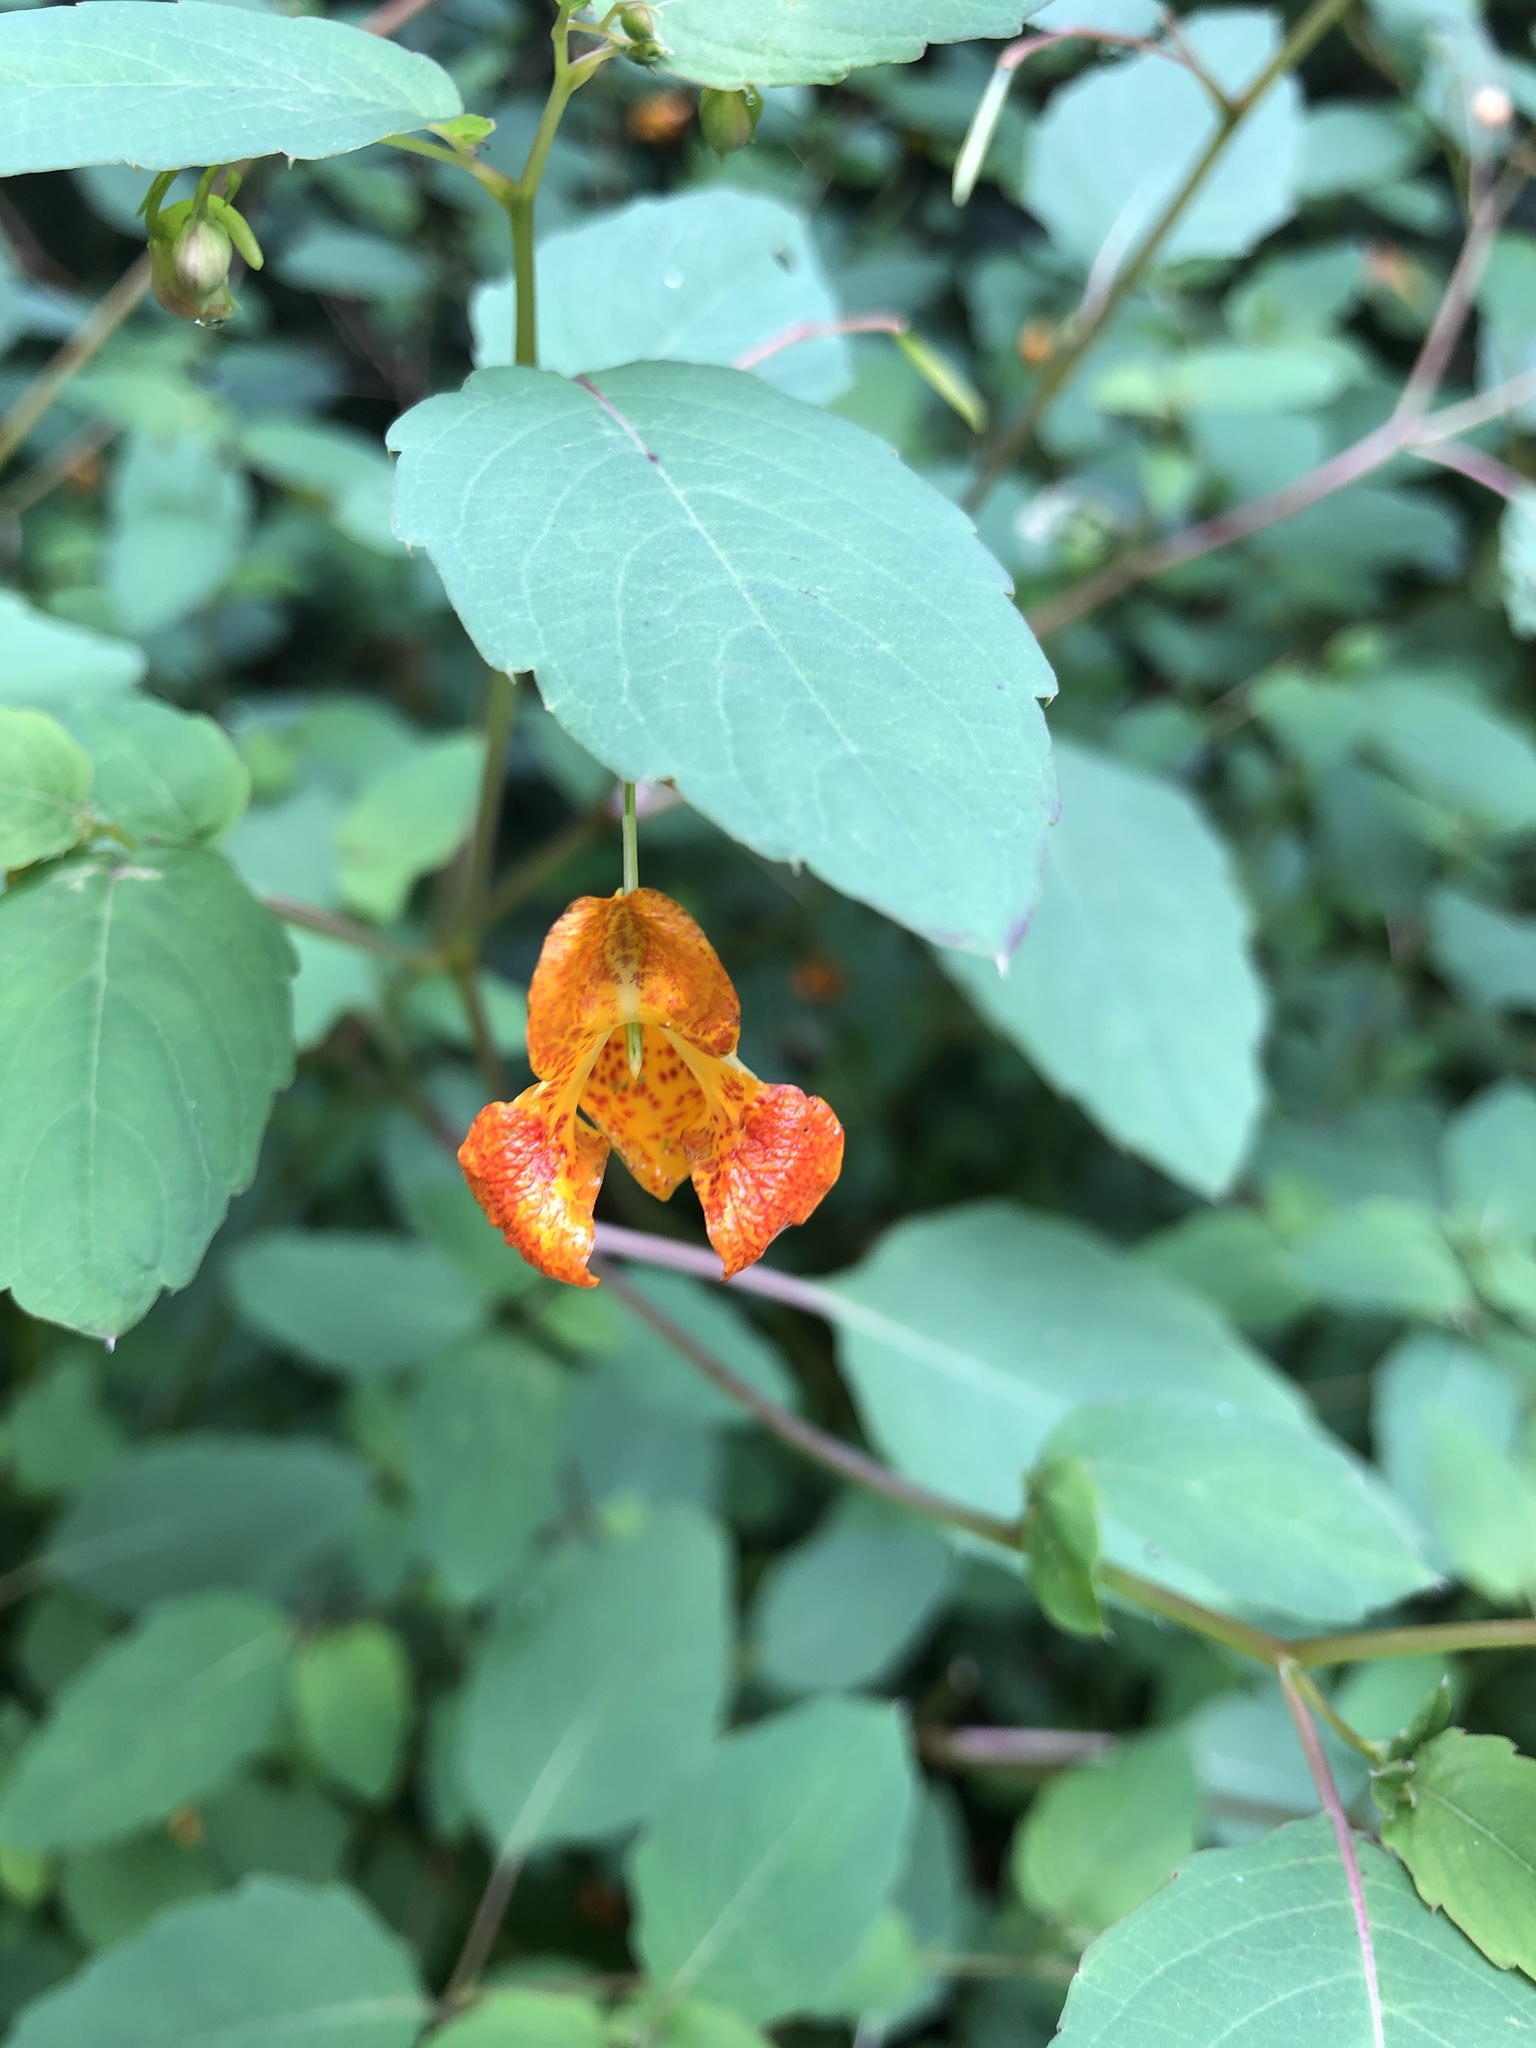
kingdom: Plantae
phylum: Tracheophyta
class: Magnoliopsida
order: Ericales
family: Balsaminaceae
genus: Impatiens
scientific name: Impatiens capensis
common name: Orange balsam
